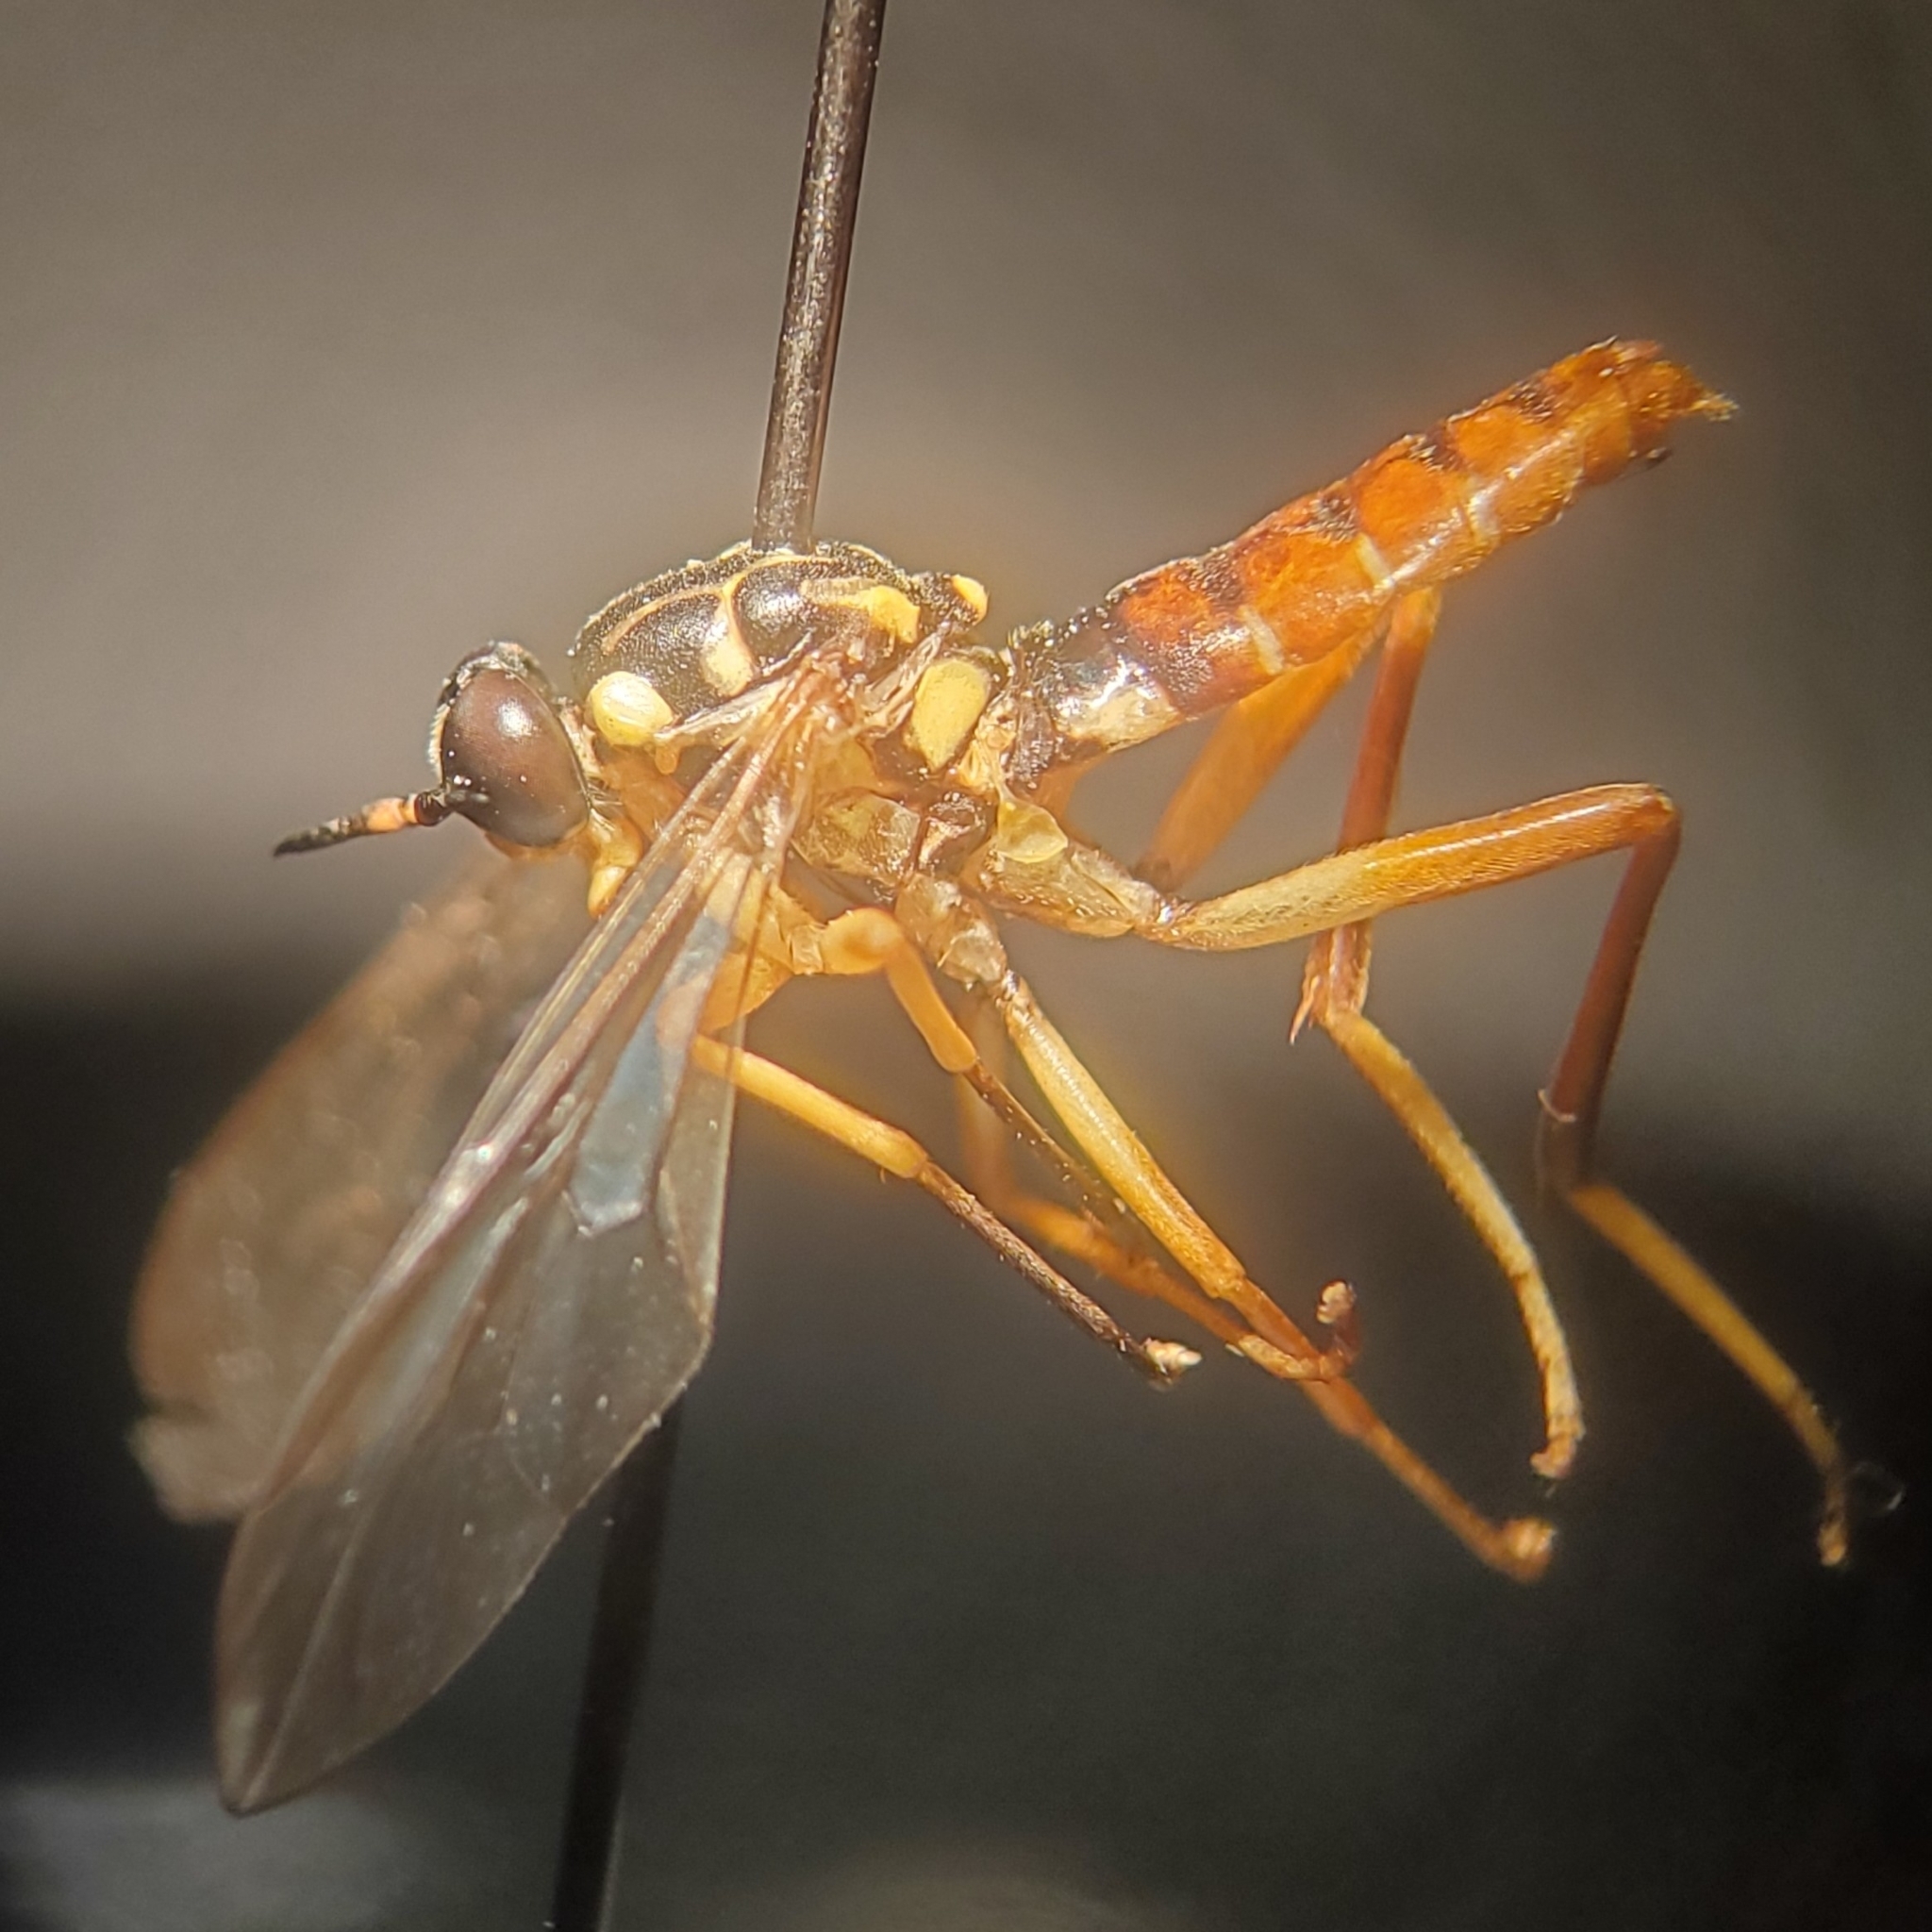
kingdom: Animalia
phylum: Arthropoda
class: Insecta
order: Diptera
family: Xylomyidae
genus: Xylomya
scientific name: Xylomya americana
